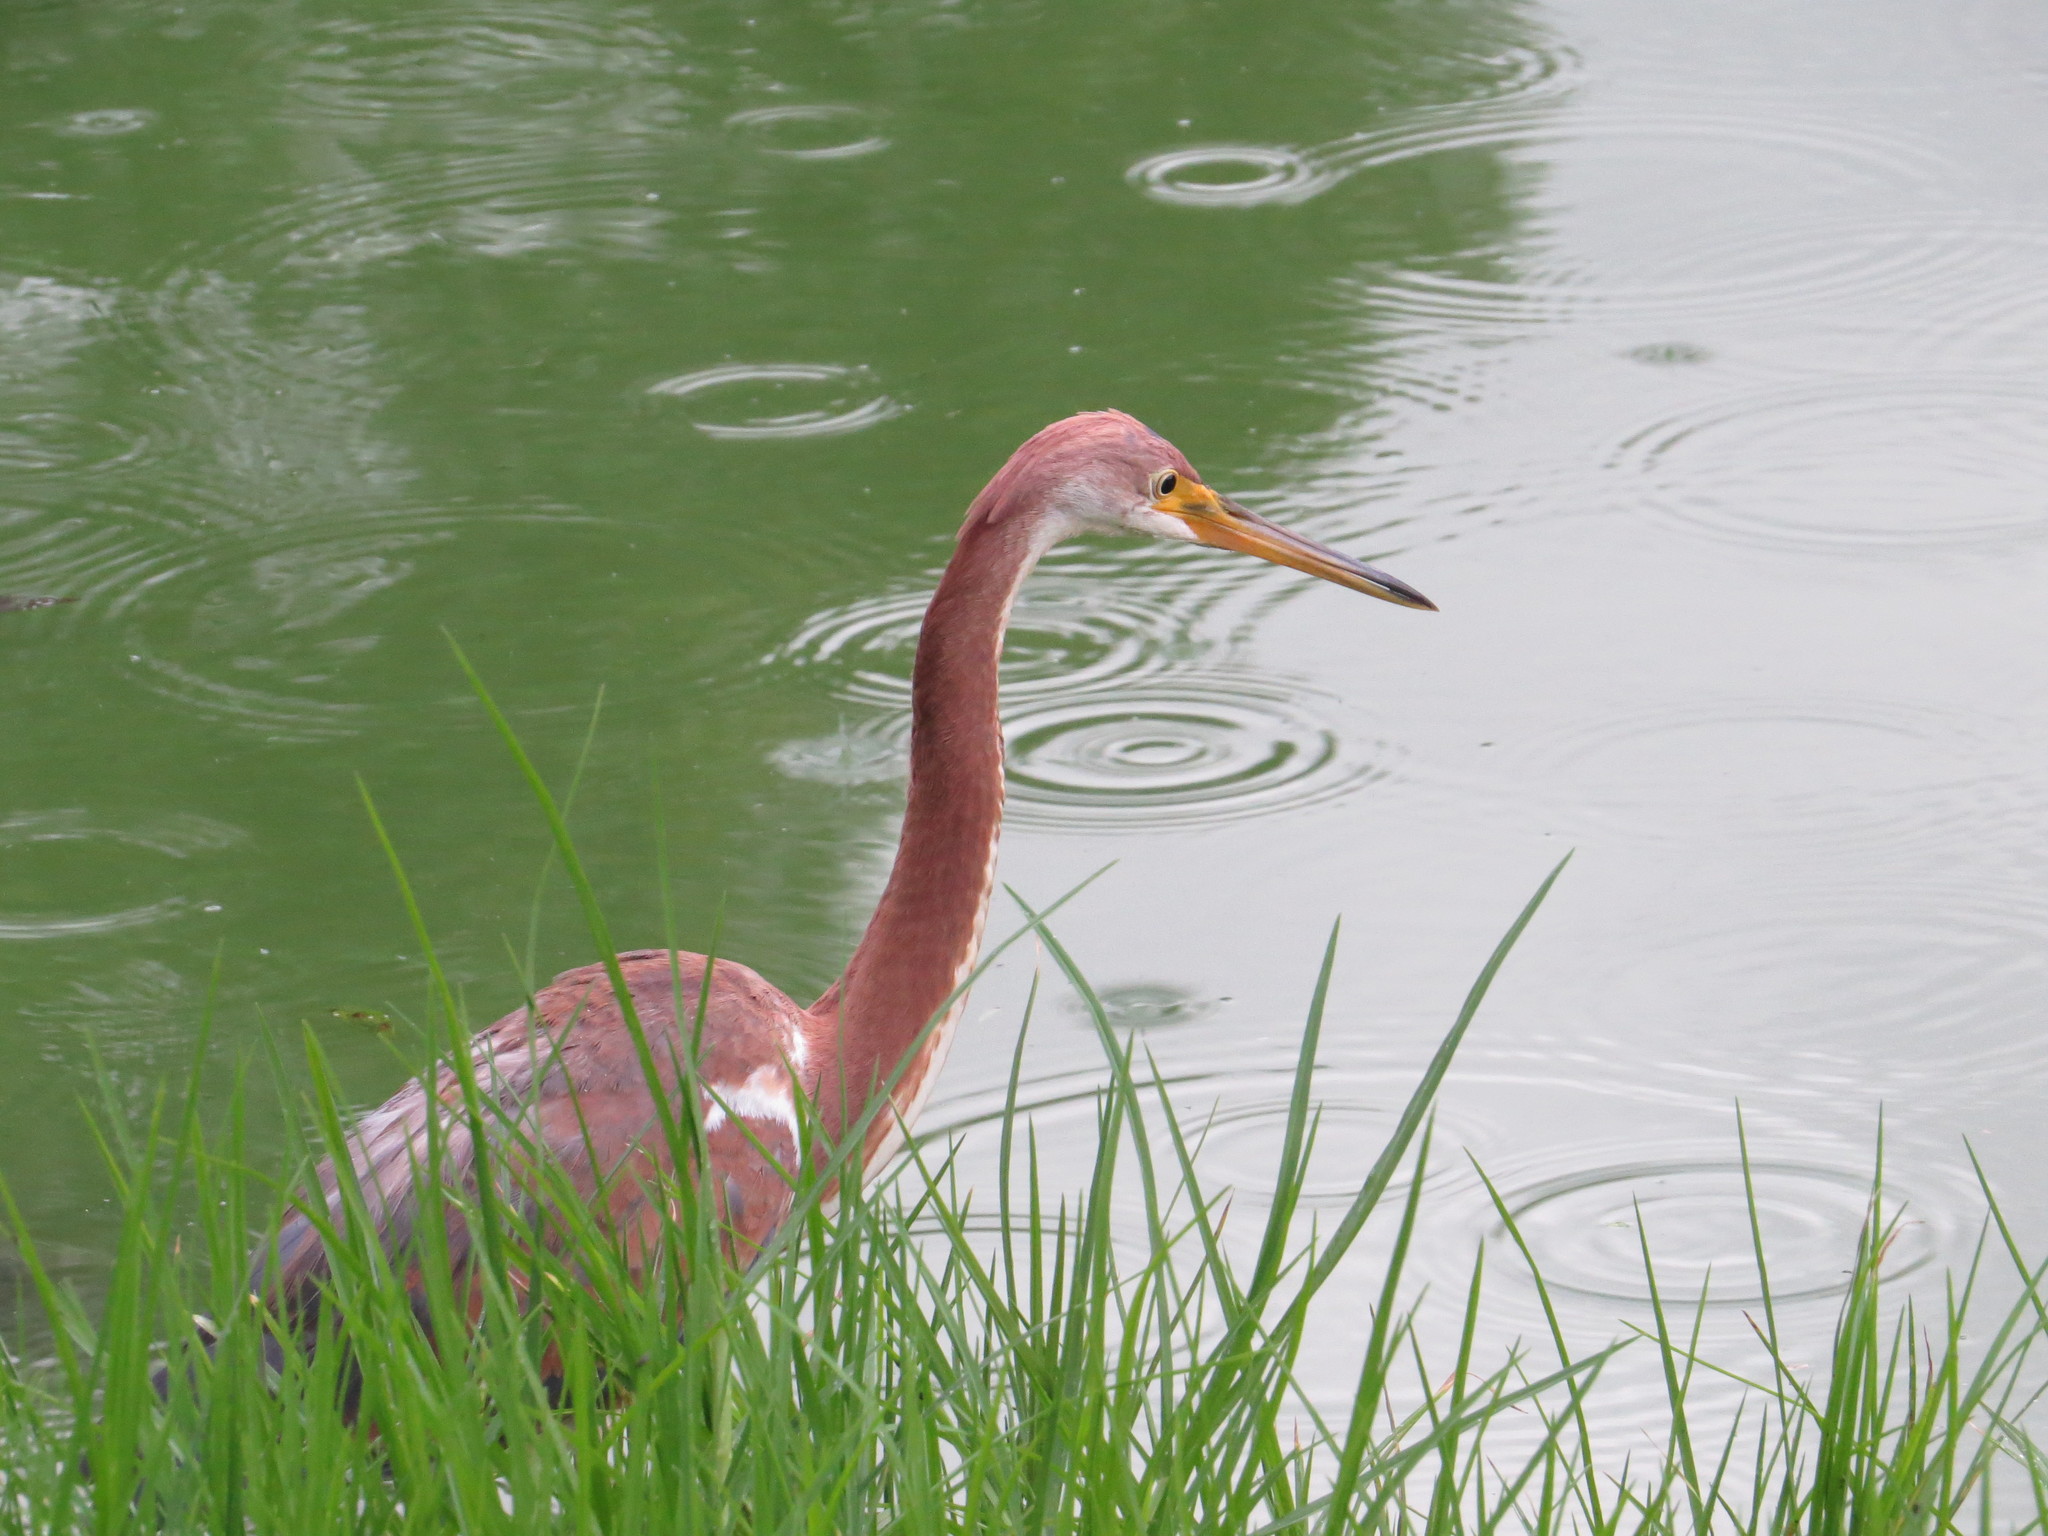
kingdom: Animalia
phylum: Chordata
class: Aves
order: Pelecaniformes
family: Ardeidae
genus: Egretta
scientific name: Egretta tricolor
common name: Tricolored heron
